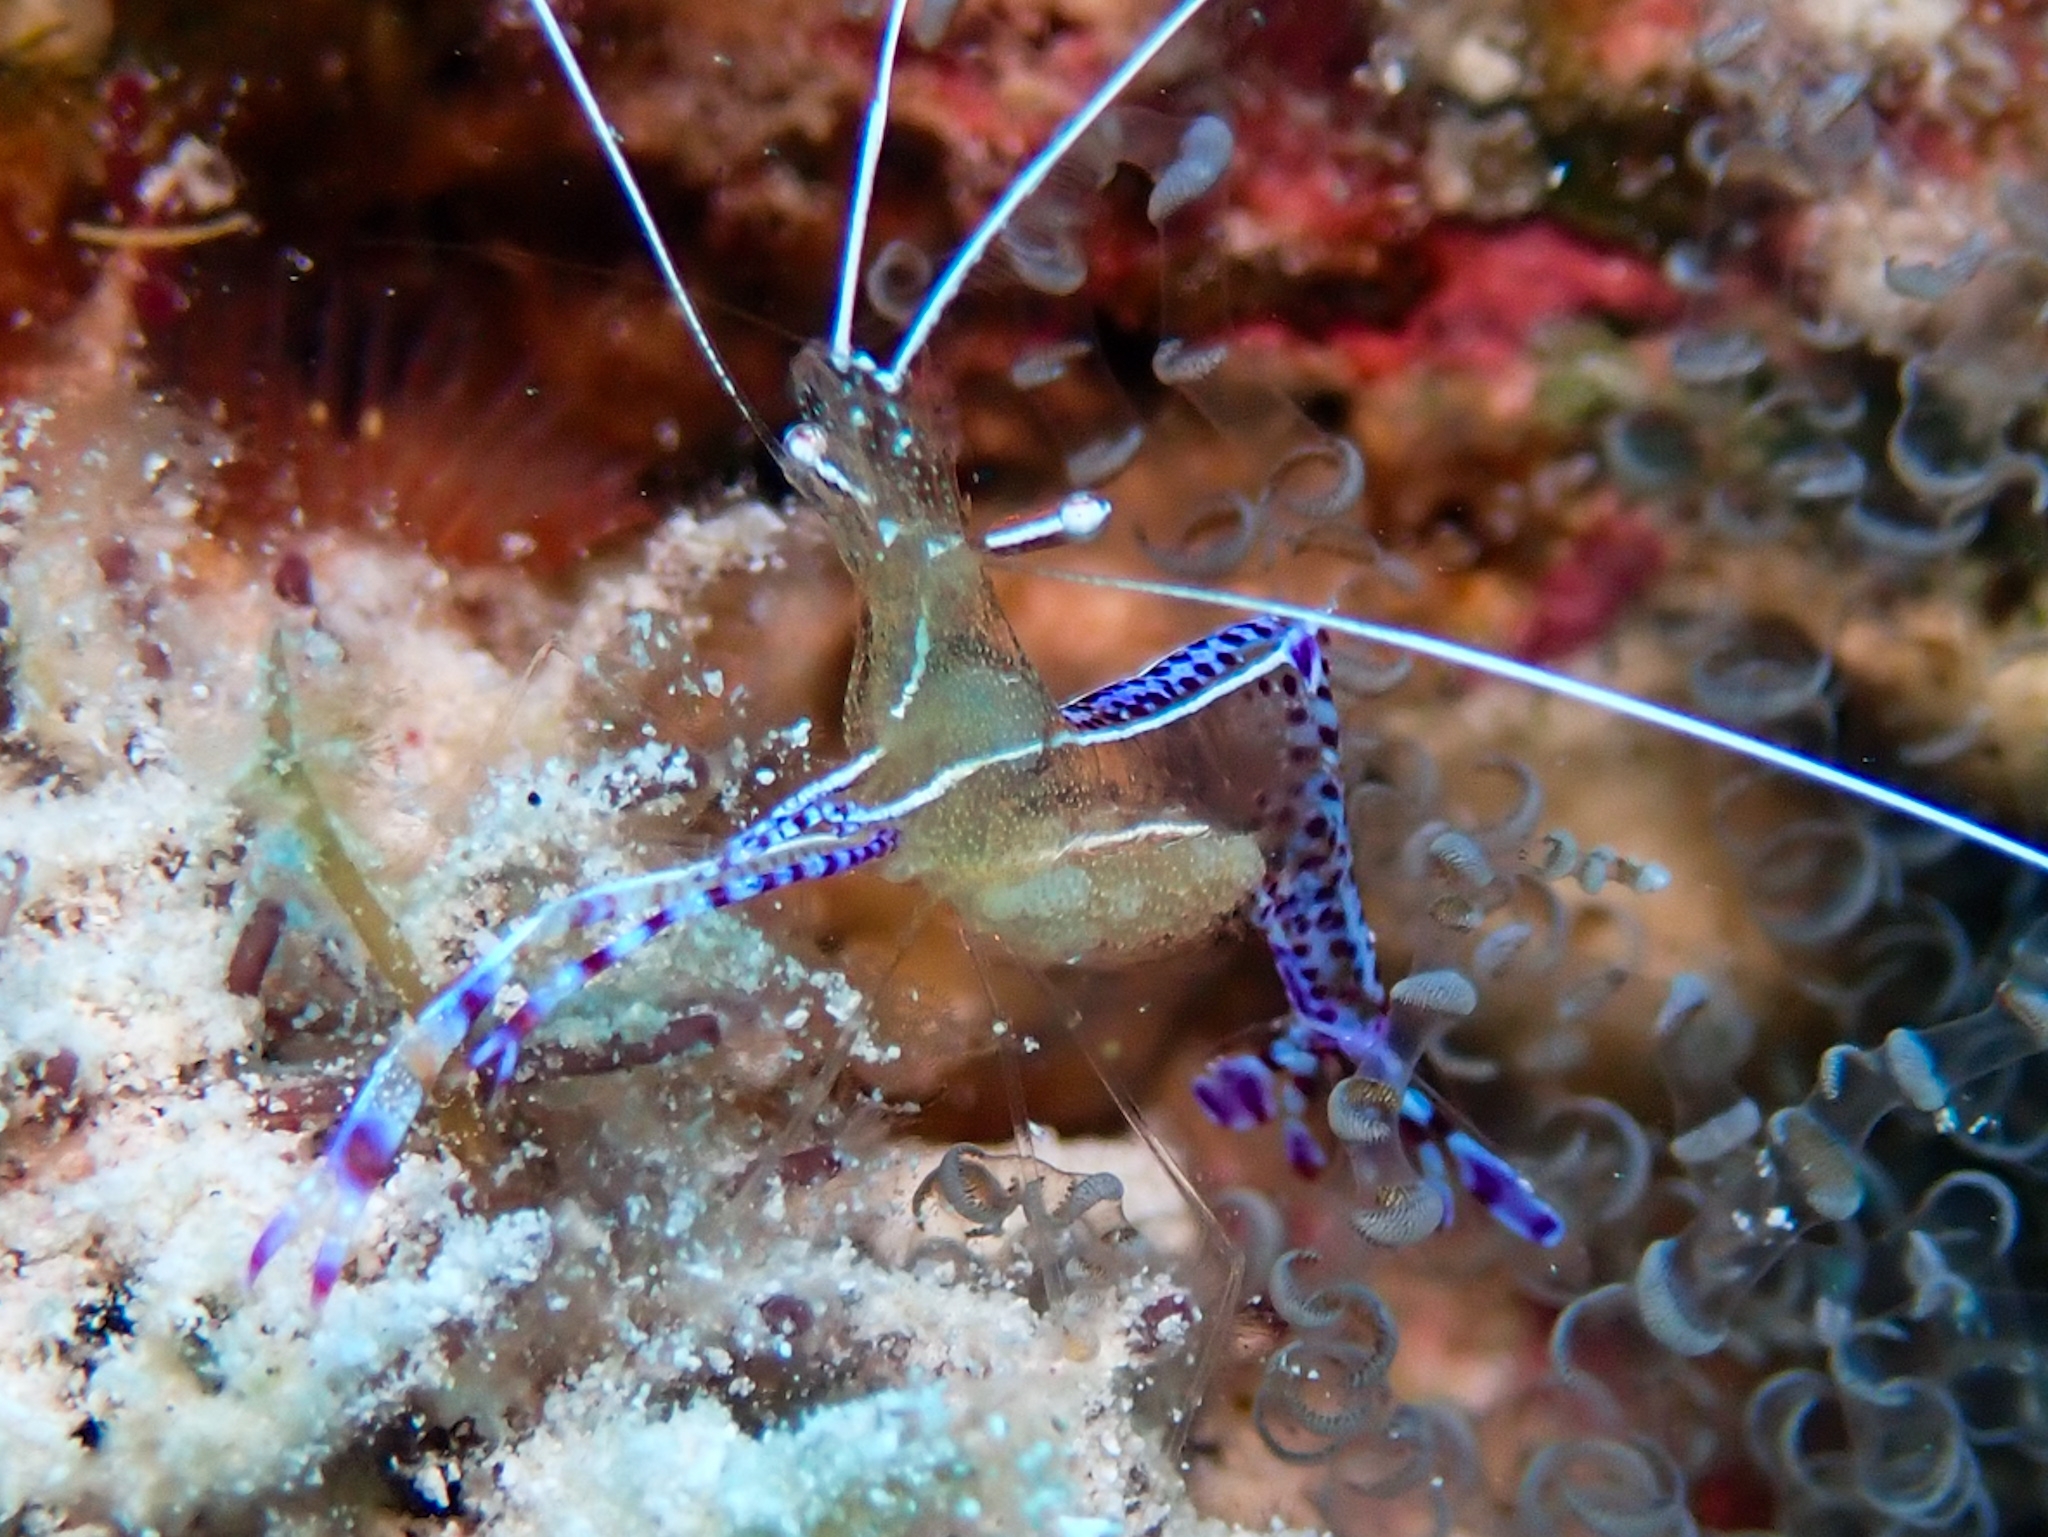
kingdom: Animalia
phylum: Arthropoda
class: Malacostraca
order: Decapoda
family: Palaemonidae
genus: Ancylomenes
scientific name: Ancylomenes pedersoni
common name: Pederson's cleaning shrimp
